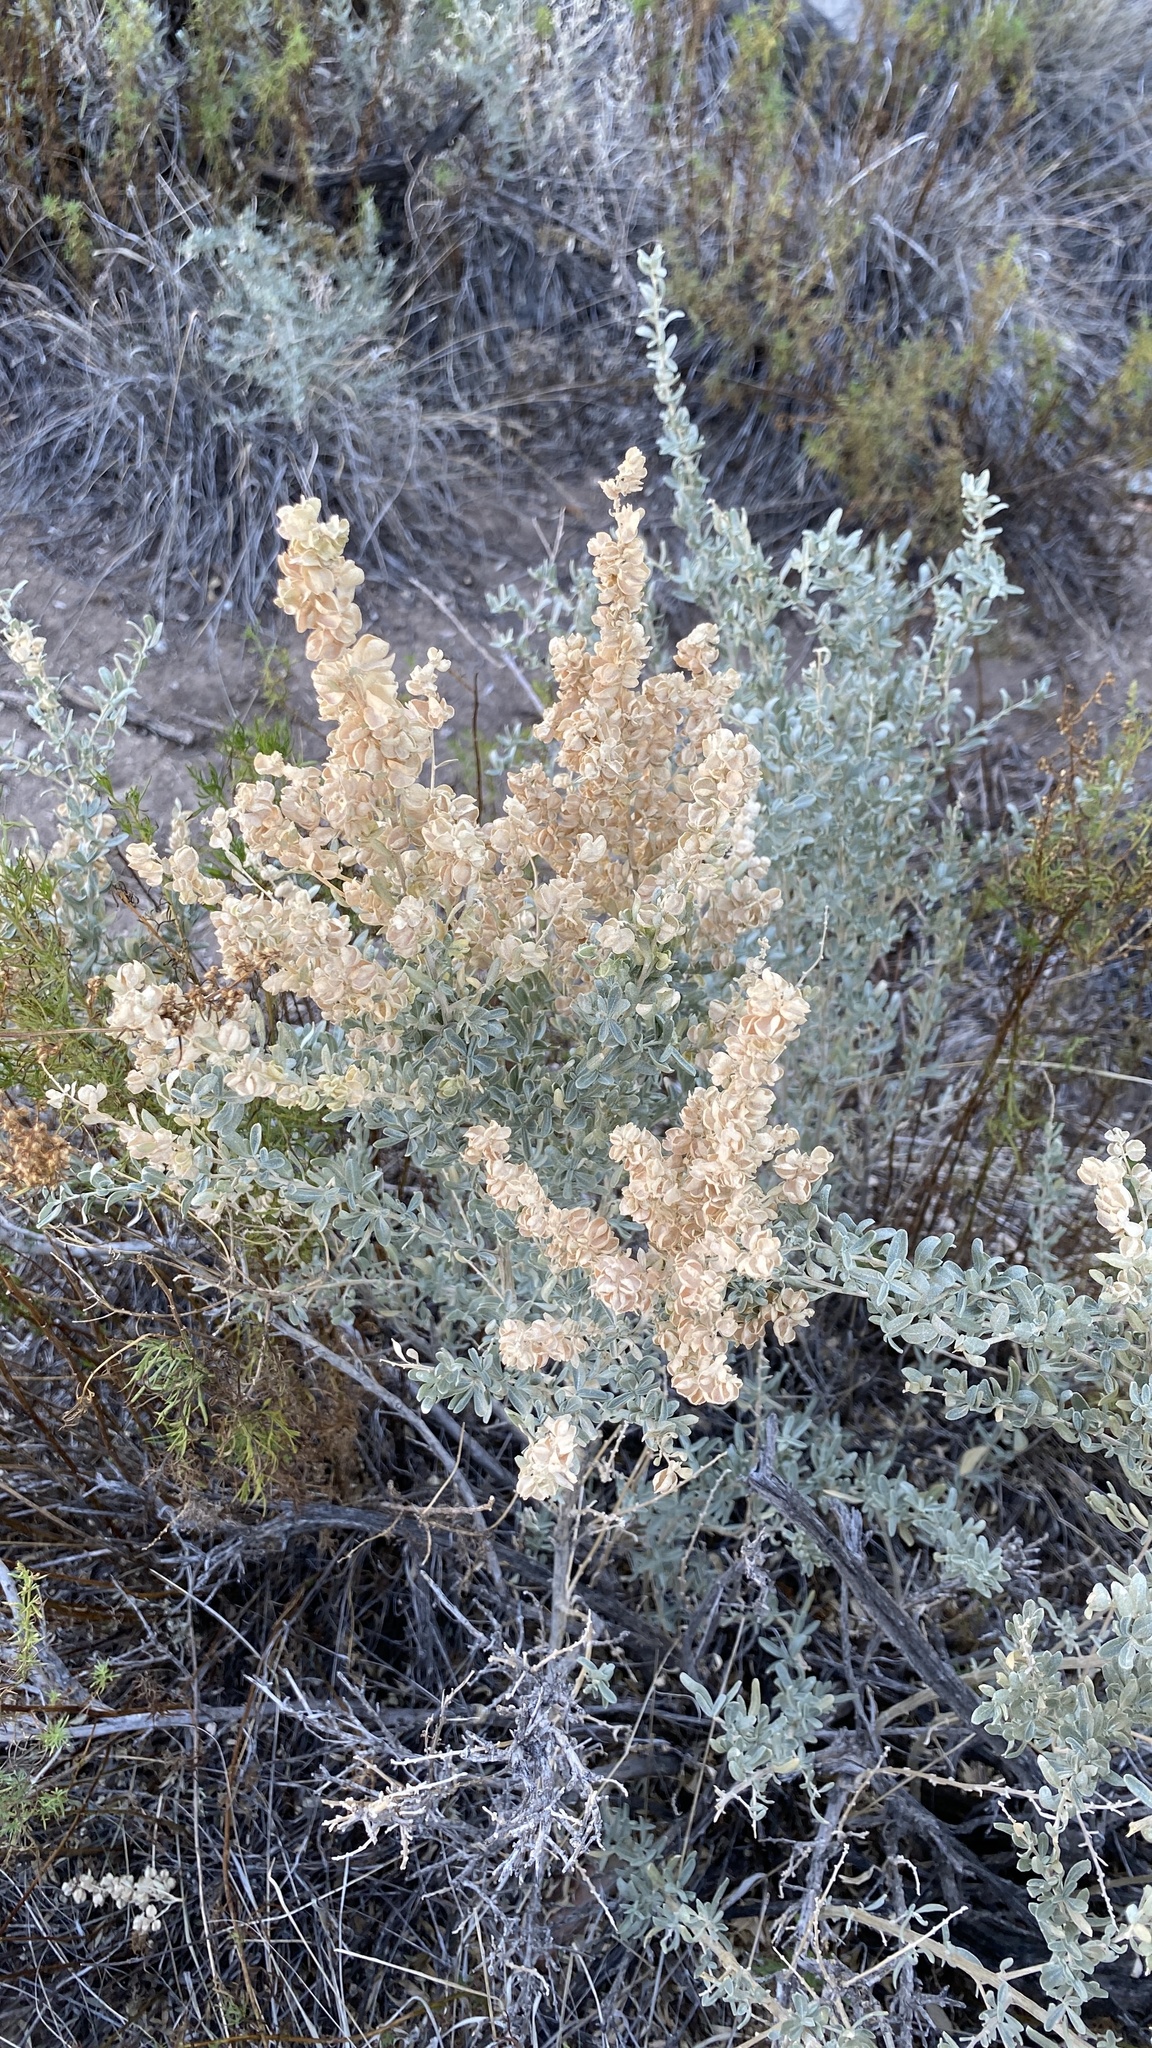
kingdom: Plantae
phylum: Tracheophyta
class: Magnoliopsida
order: Caryophyllales
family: Amaranthaceae
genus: Atriplex
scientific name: Atriplex canescens
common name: Four-wing saltbush
